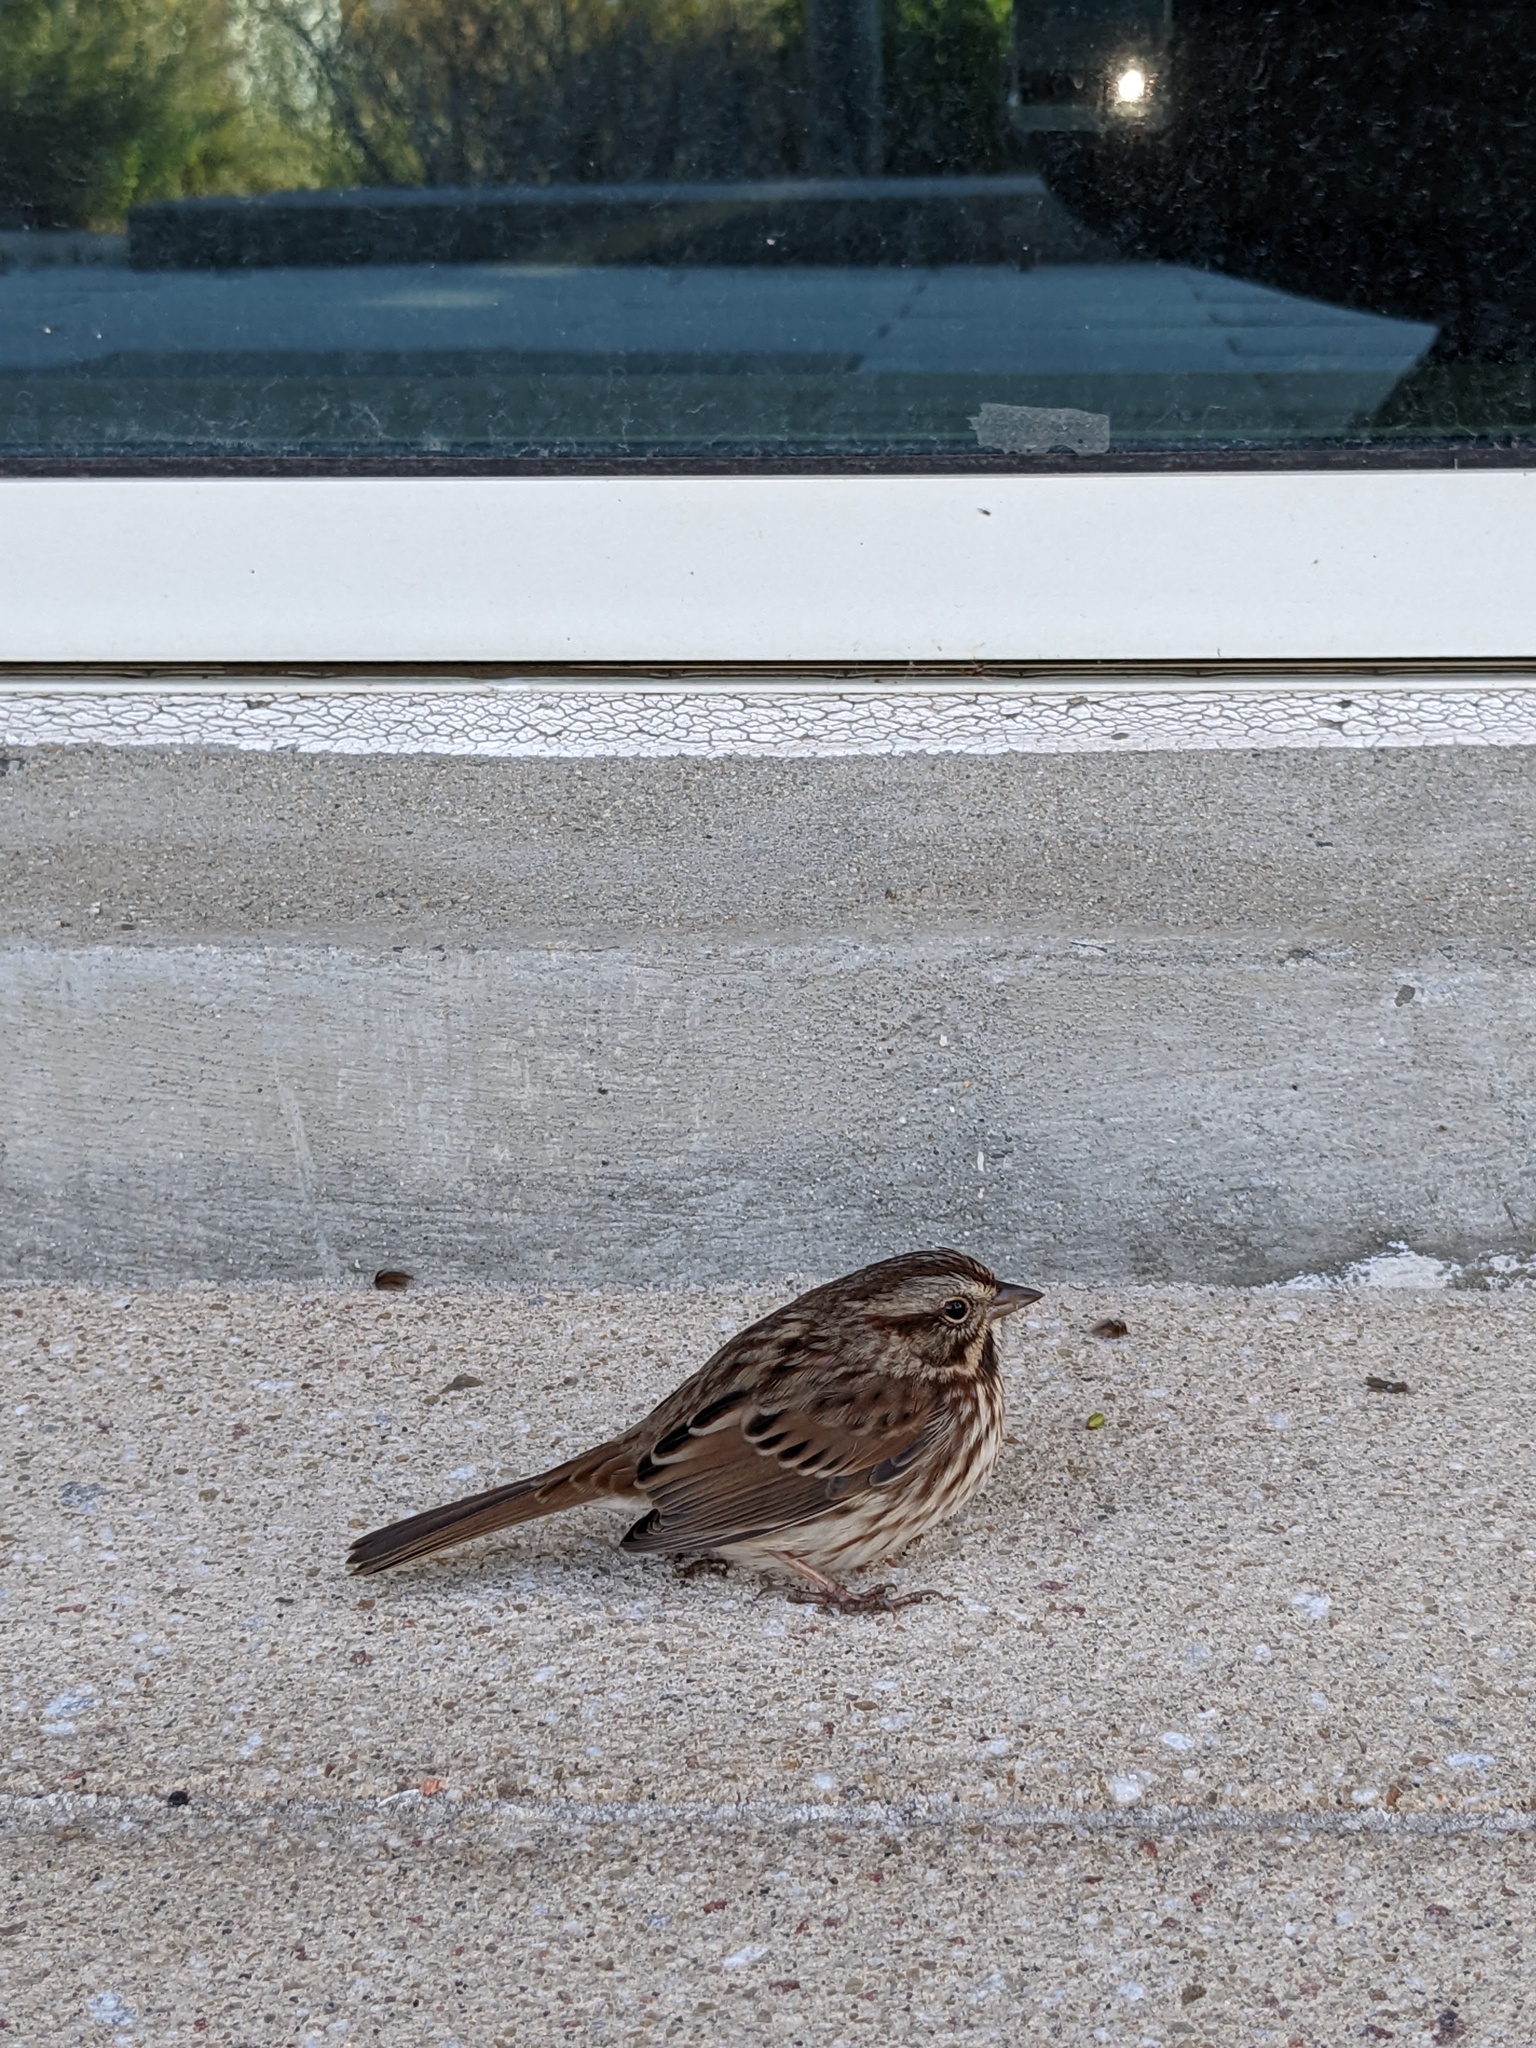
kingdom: Animalia
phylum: Chordata
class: Aves
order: Passeriformes
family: Passerellidae
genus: Melospiza
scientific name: Melospiza melodia
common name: Song sparrow
